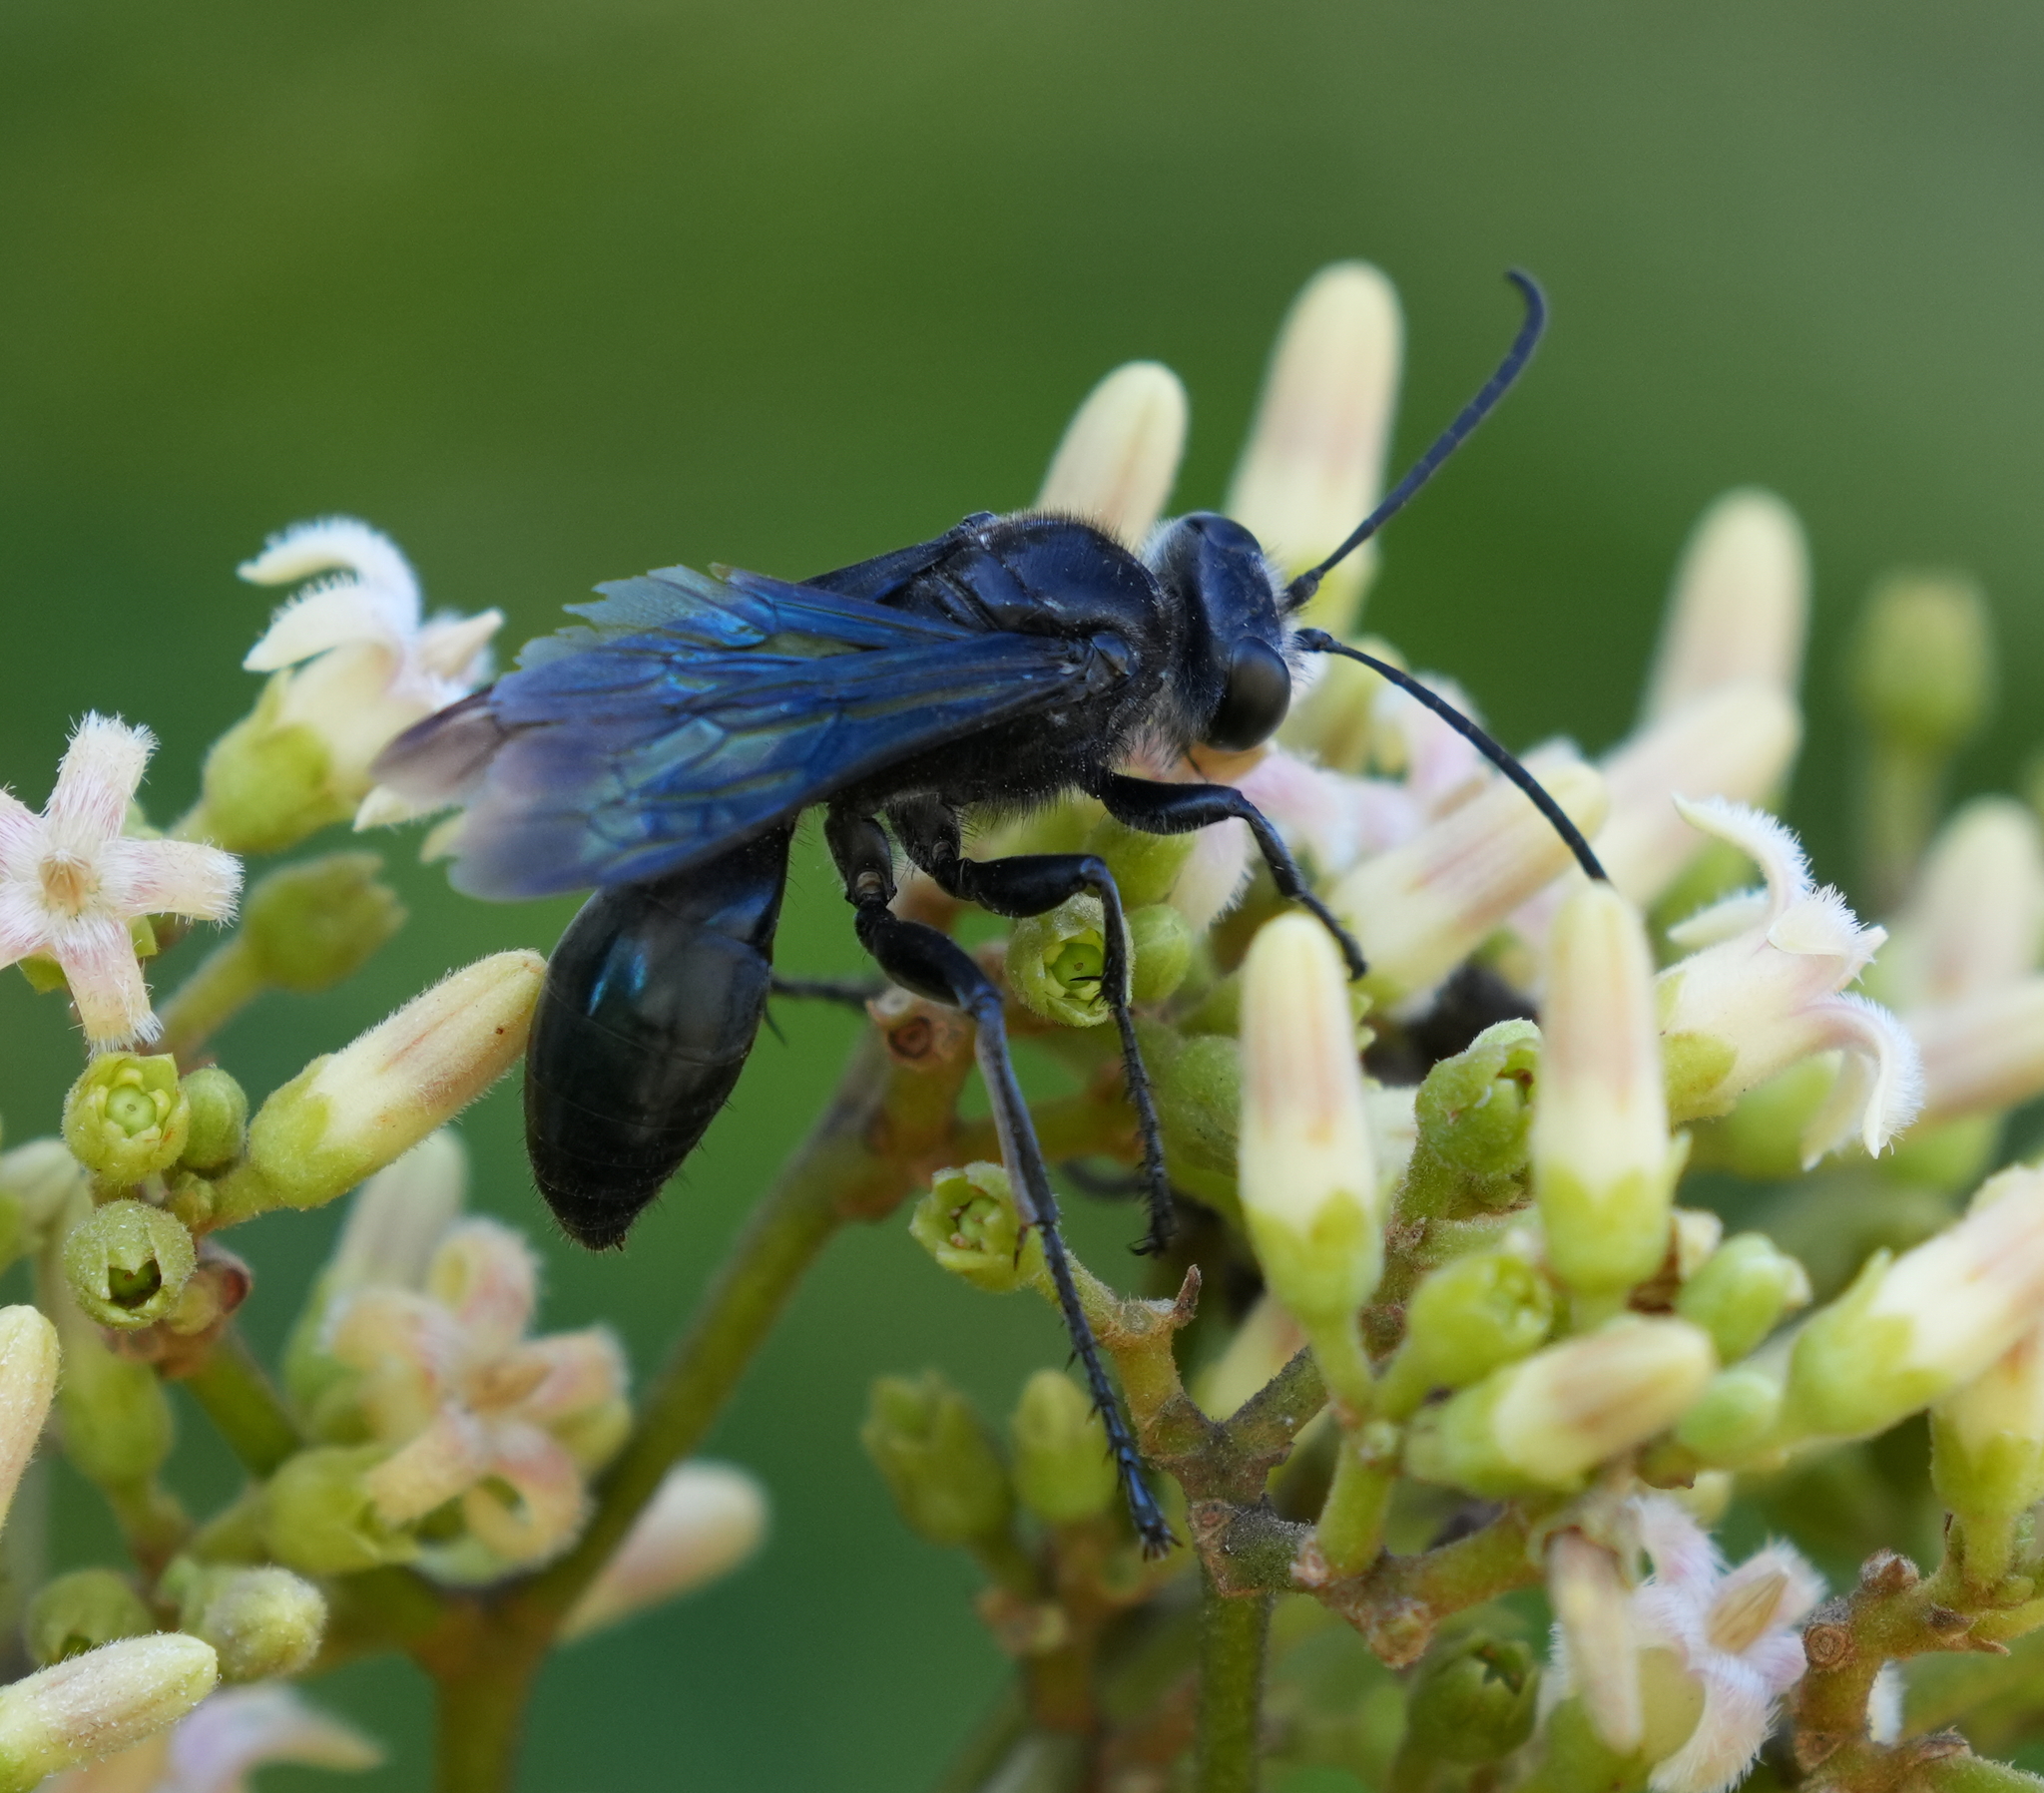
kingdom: Animalia
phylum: Arthropoda
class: Insecta
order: Hymenoptera
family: Sphecidae
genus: Sphex
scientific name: Sphex resplendens
